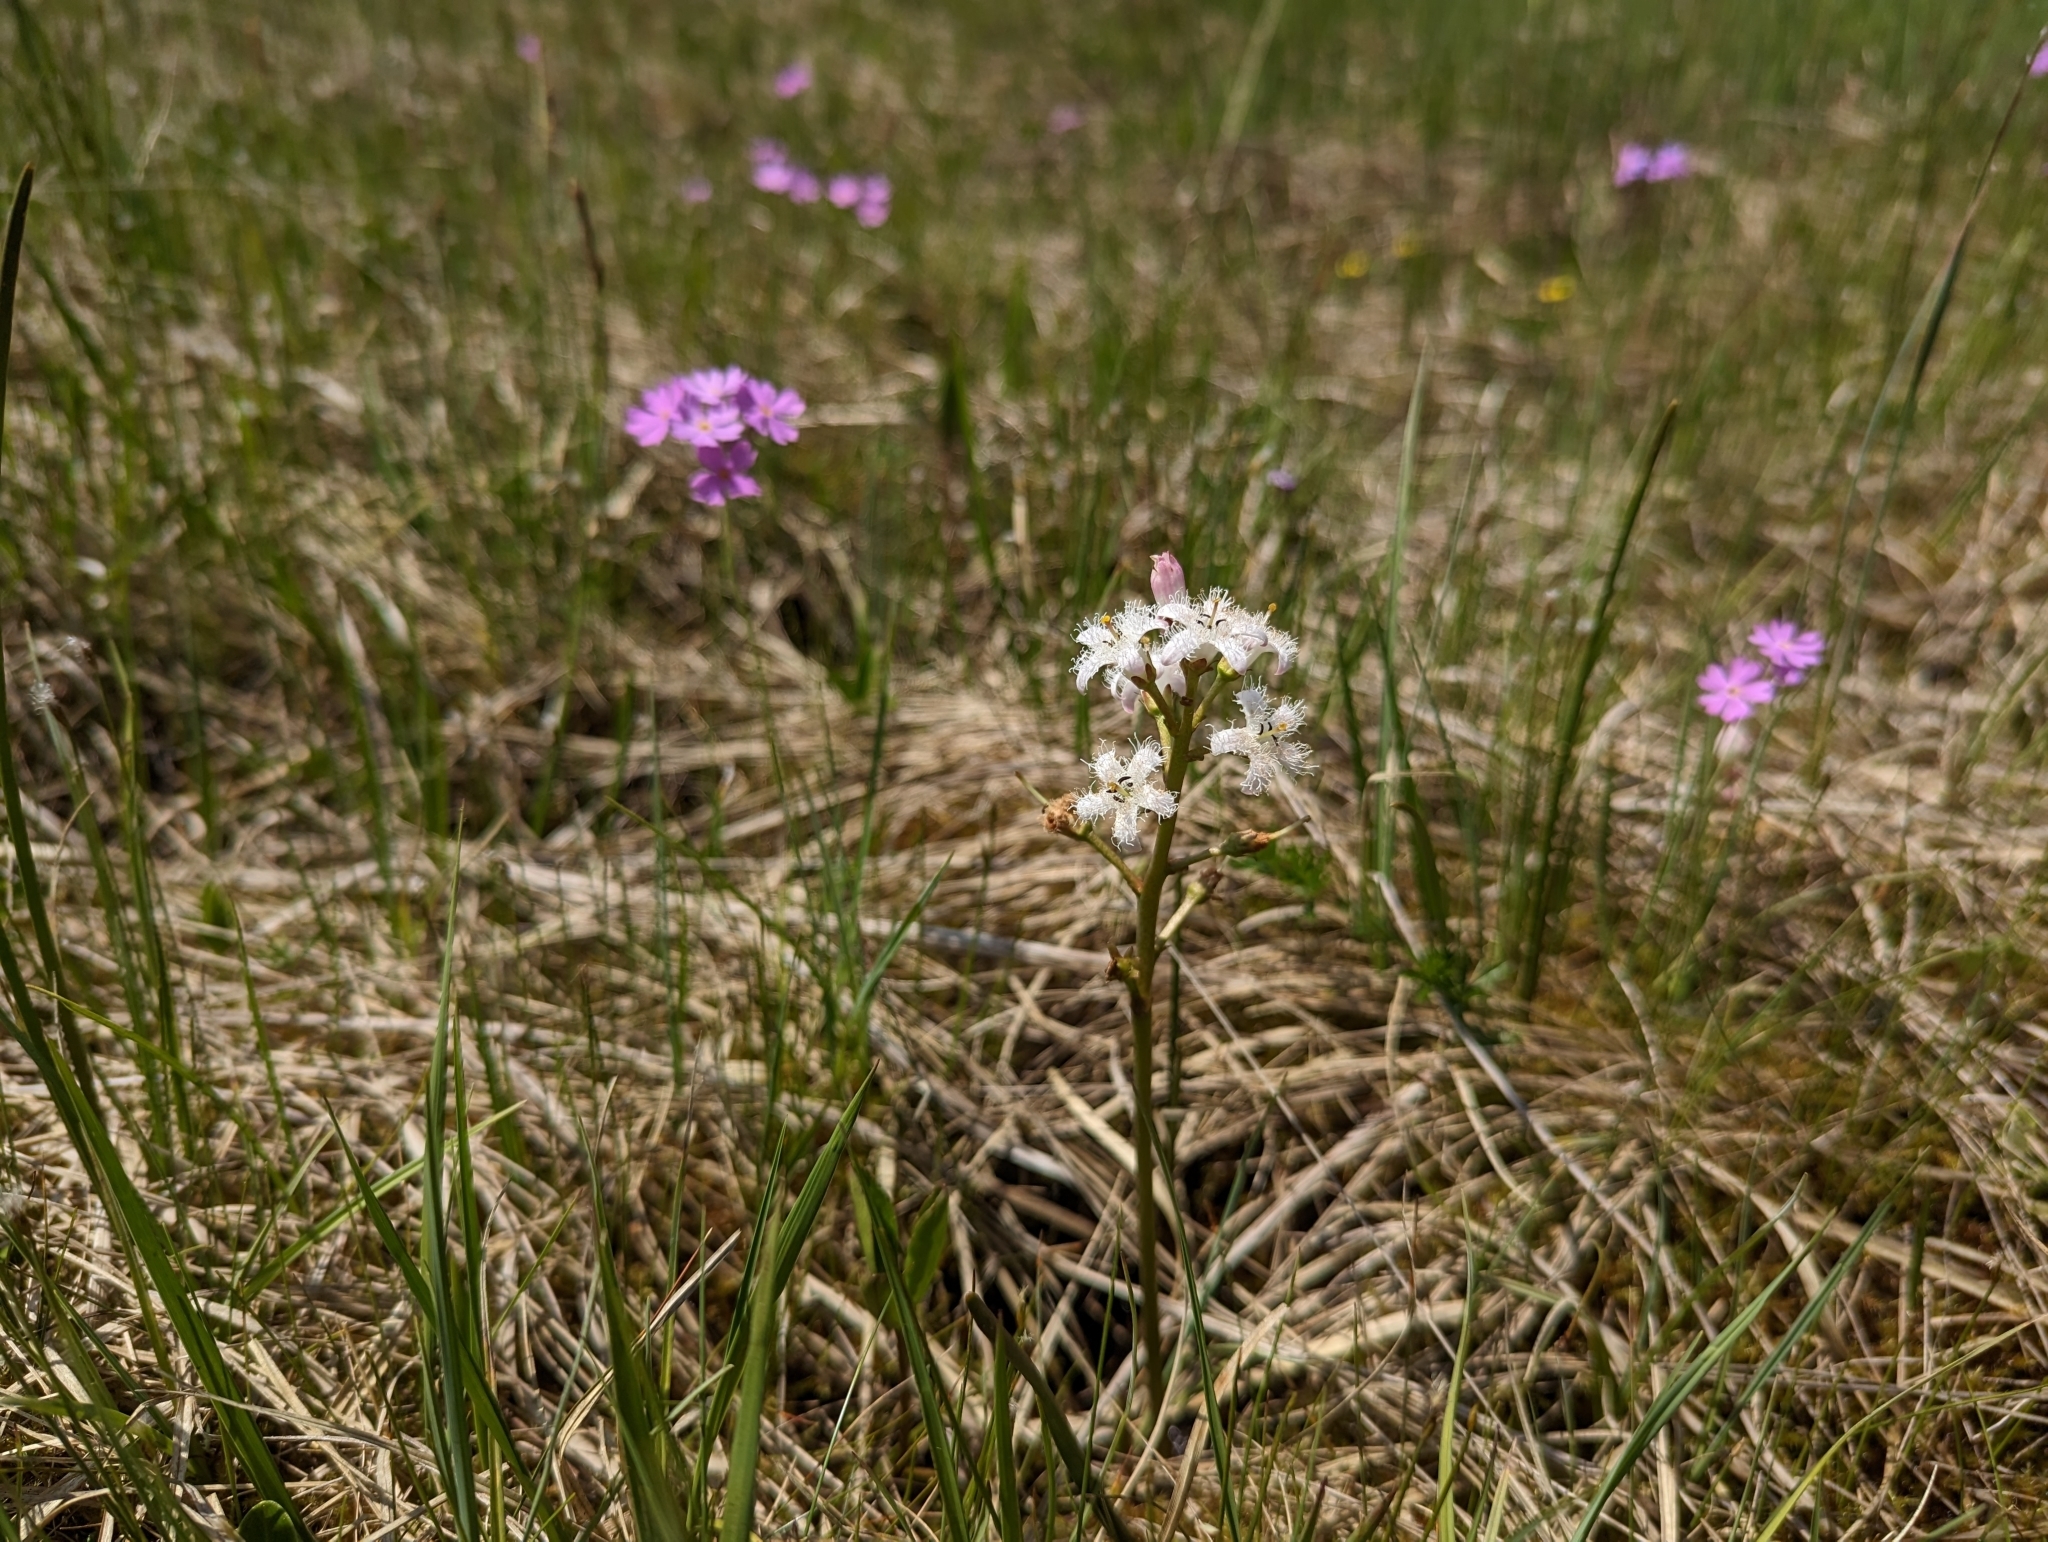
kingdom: Plantae
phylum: Tracheophyta
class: Magnoliopsida
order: Asterales
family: Menyanthaceae
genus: Menyanthes
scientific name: Menyanthes trifoliata
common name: Bogbean
